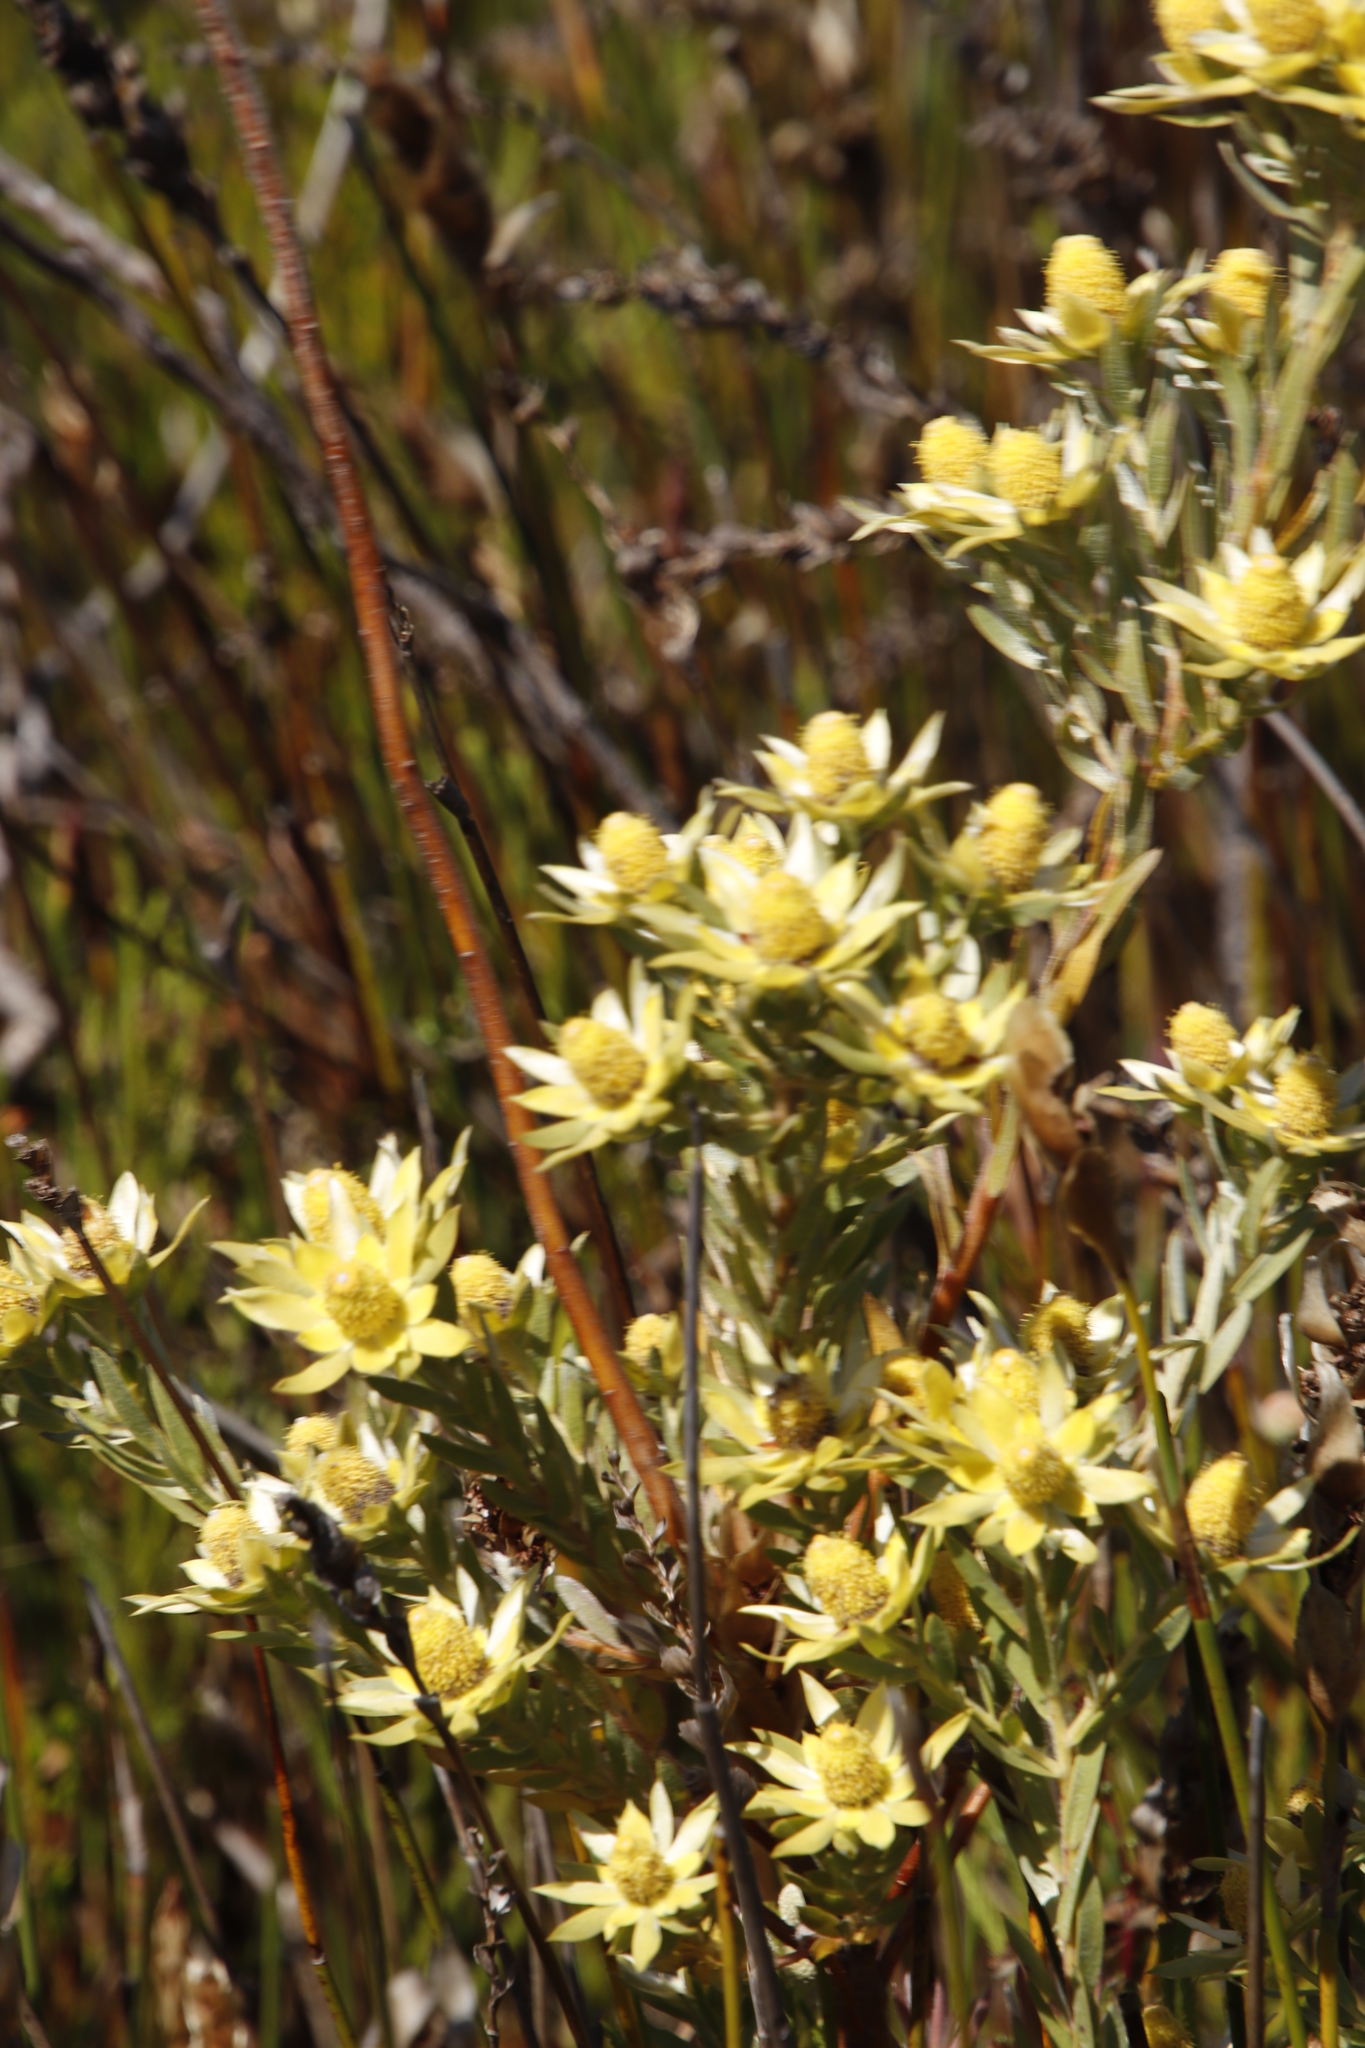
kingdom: Plantae
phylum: Tracheophyta
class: Magnoliopsida
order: Proteales
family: Proteaceae
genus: Leucadendron
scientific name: Leucadendron floridum
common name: Flats conebush
